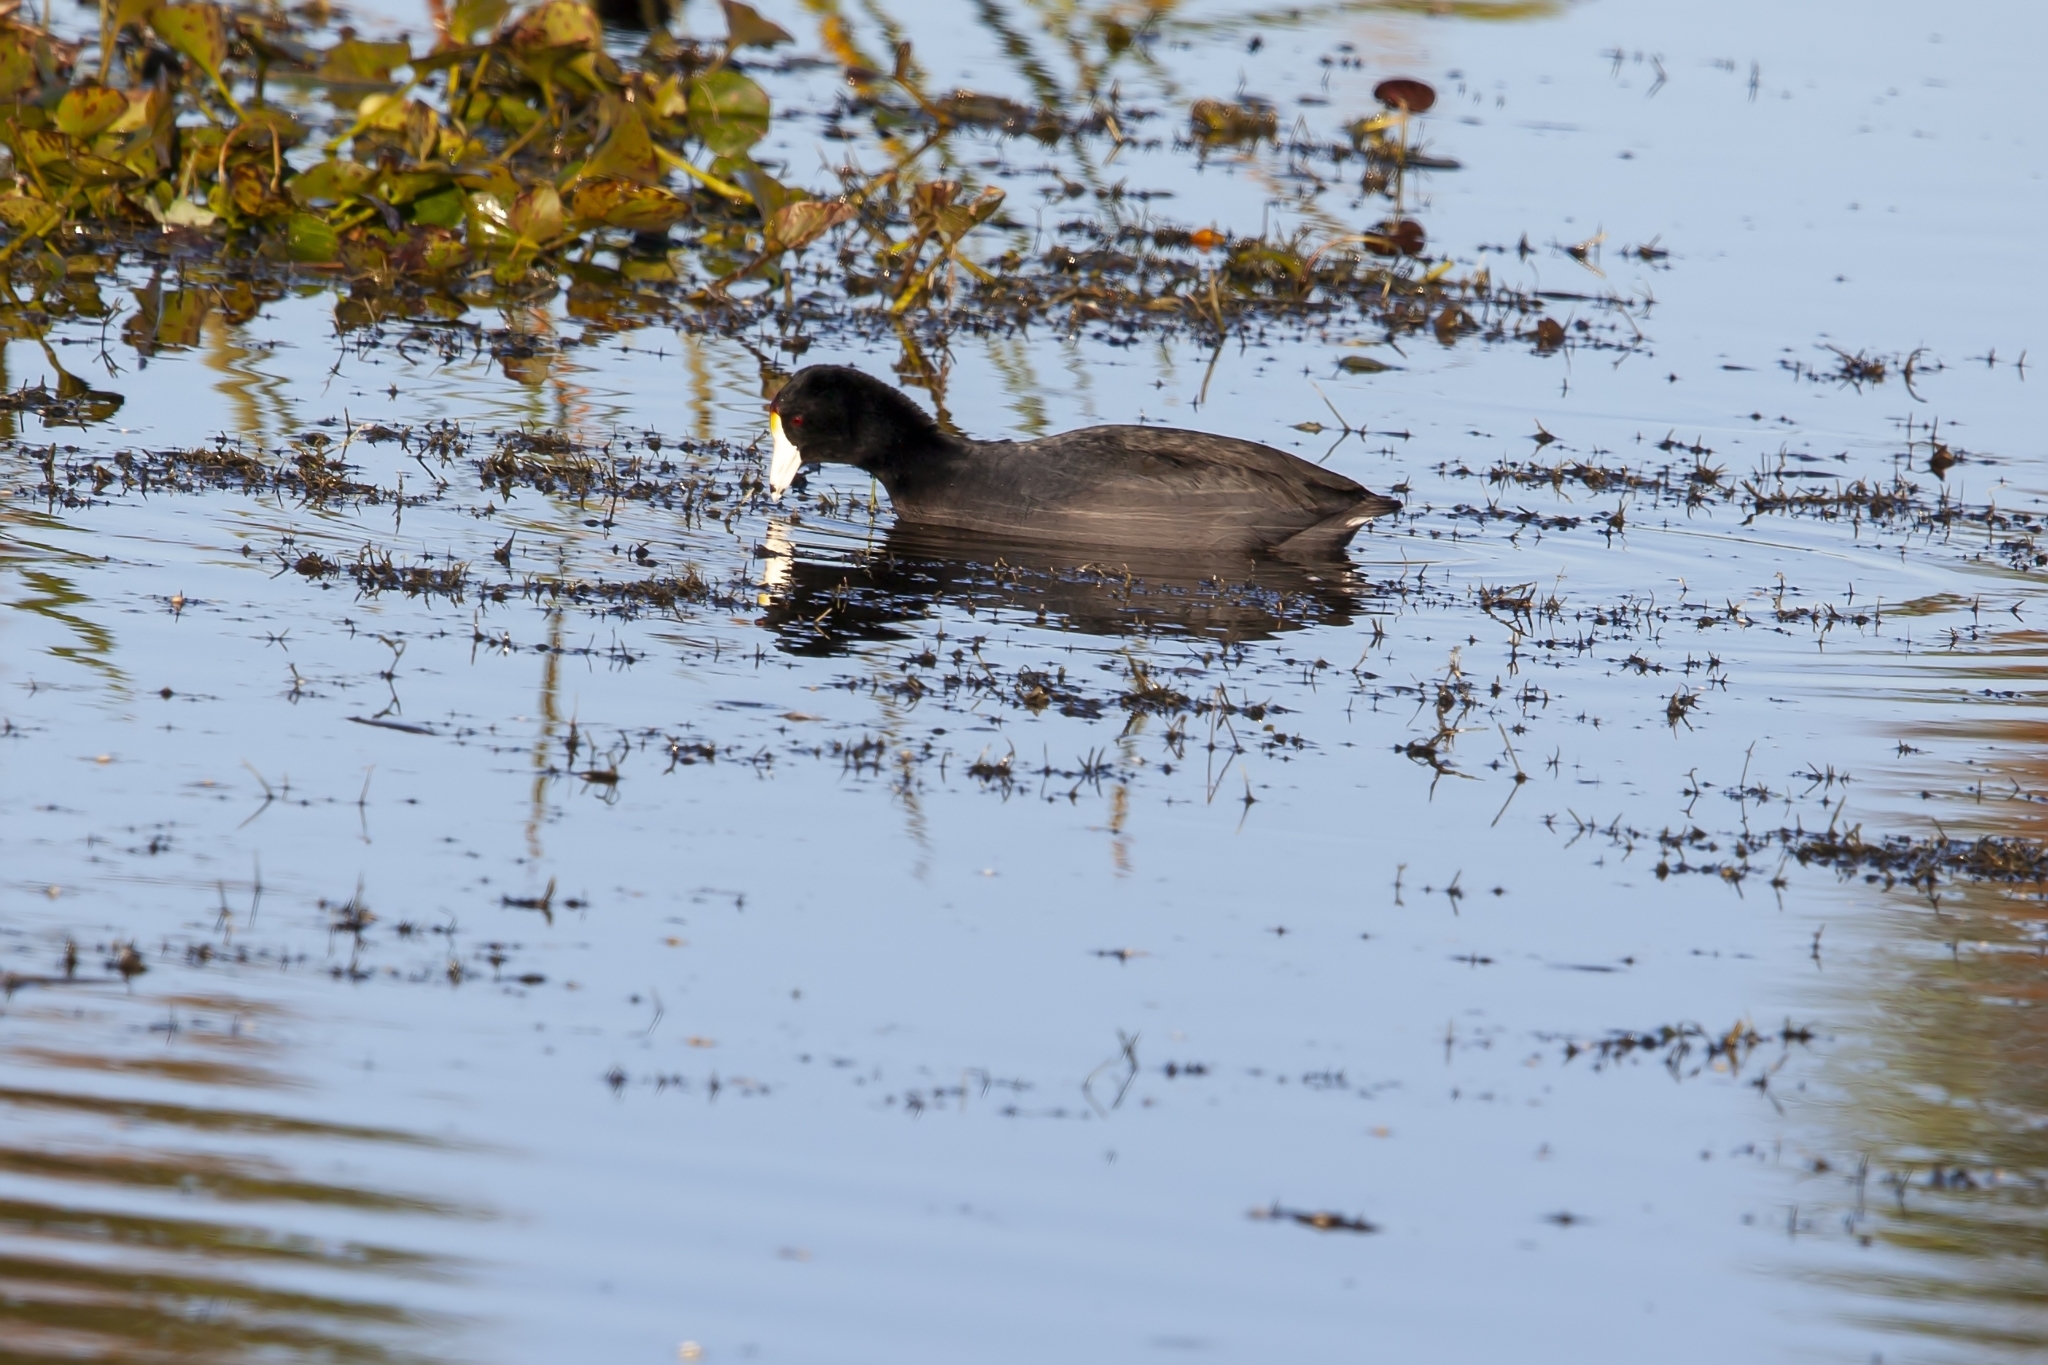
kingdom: Animalia
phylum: Chordata
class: Aves
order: Gruiformes
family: Rallidae
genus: Fulica
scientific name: Fulica americana
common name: American coot
